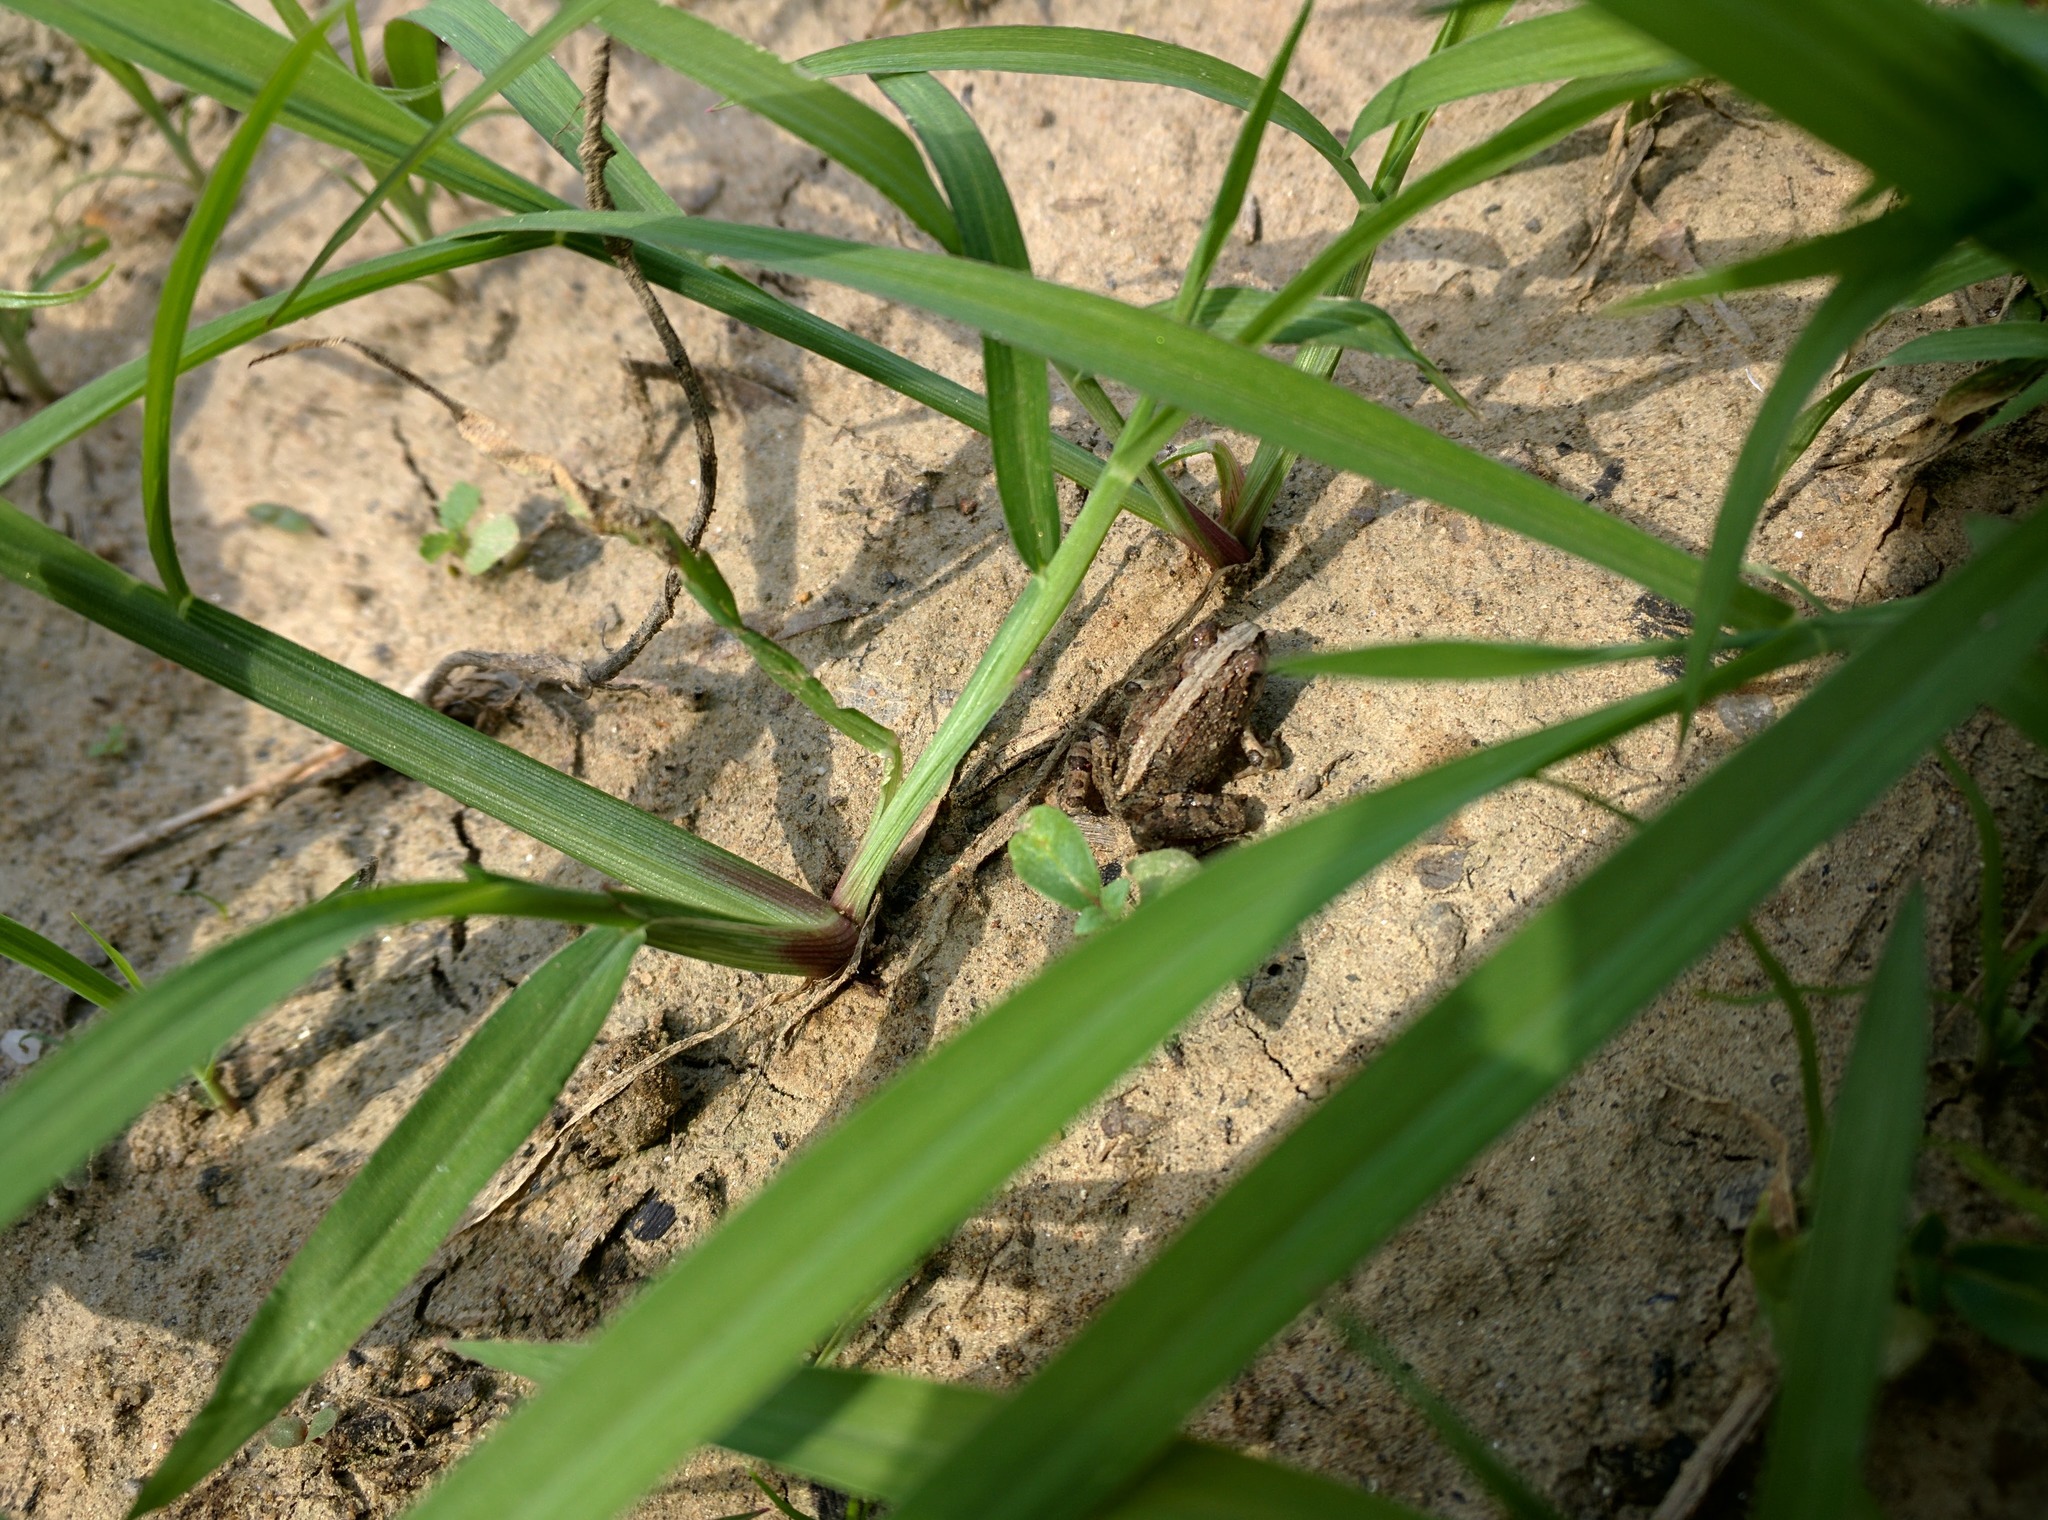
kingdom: Animalia
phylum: Chordata
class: Amphibia
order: Anura
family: Limnodynastidae
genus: Platyplectrum
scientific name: Platyplectrum ornatum
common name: Ornate burrowing frog
